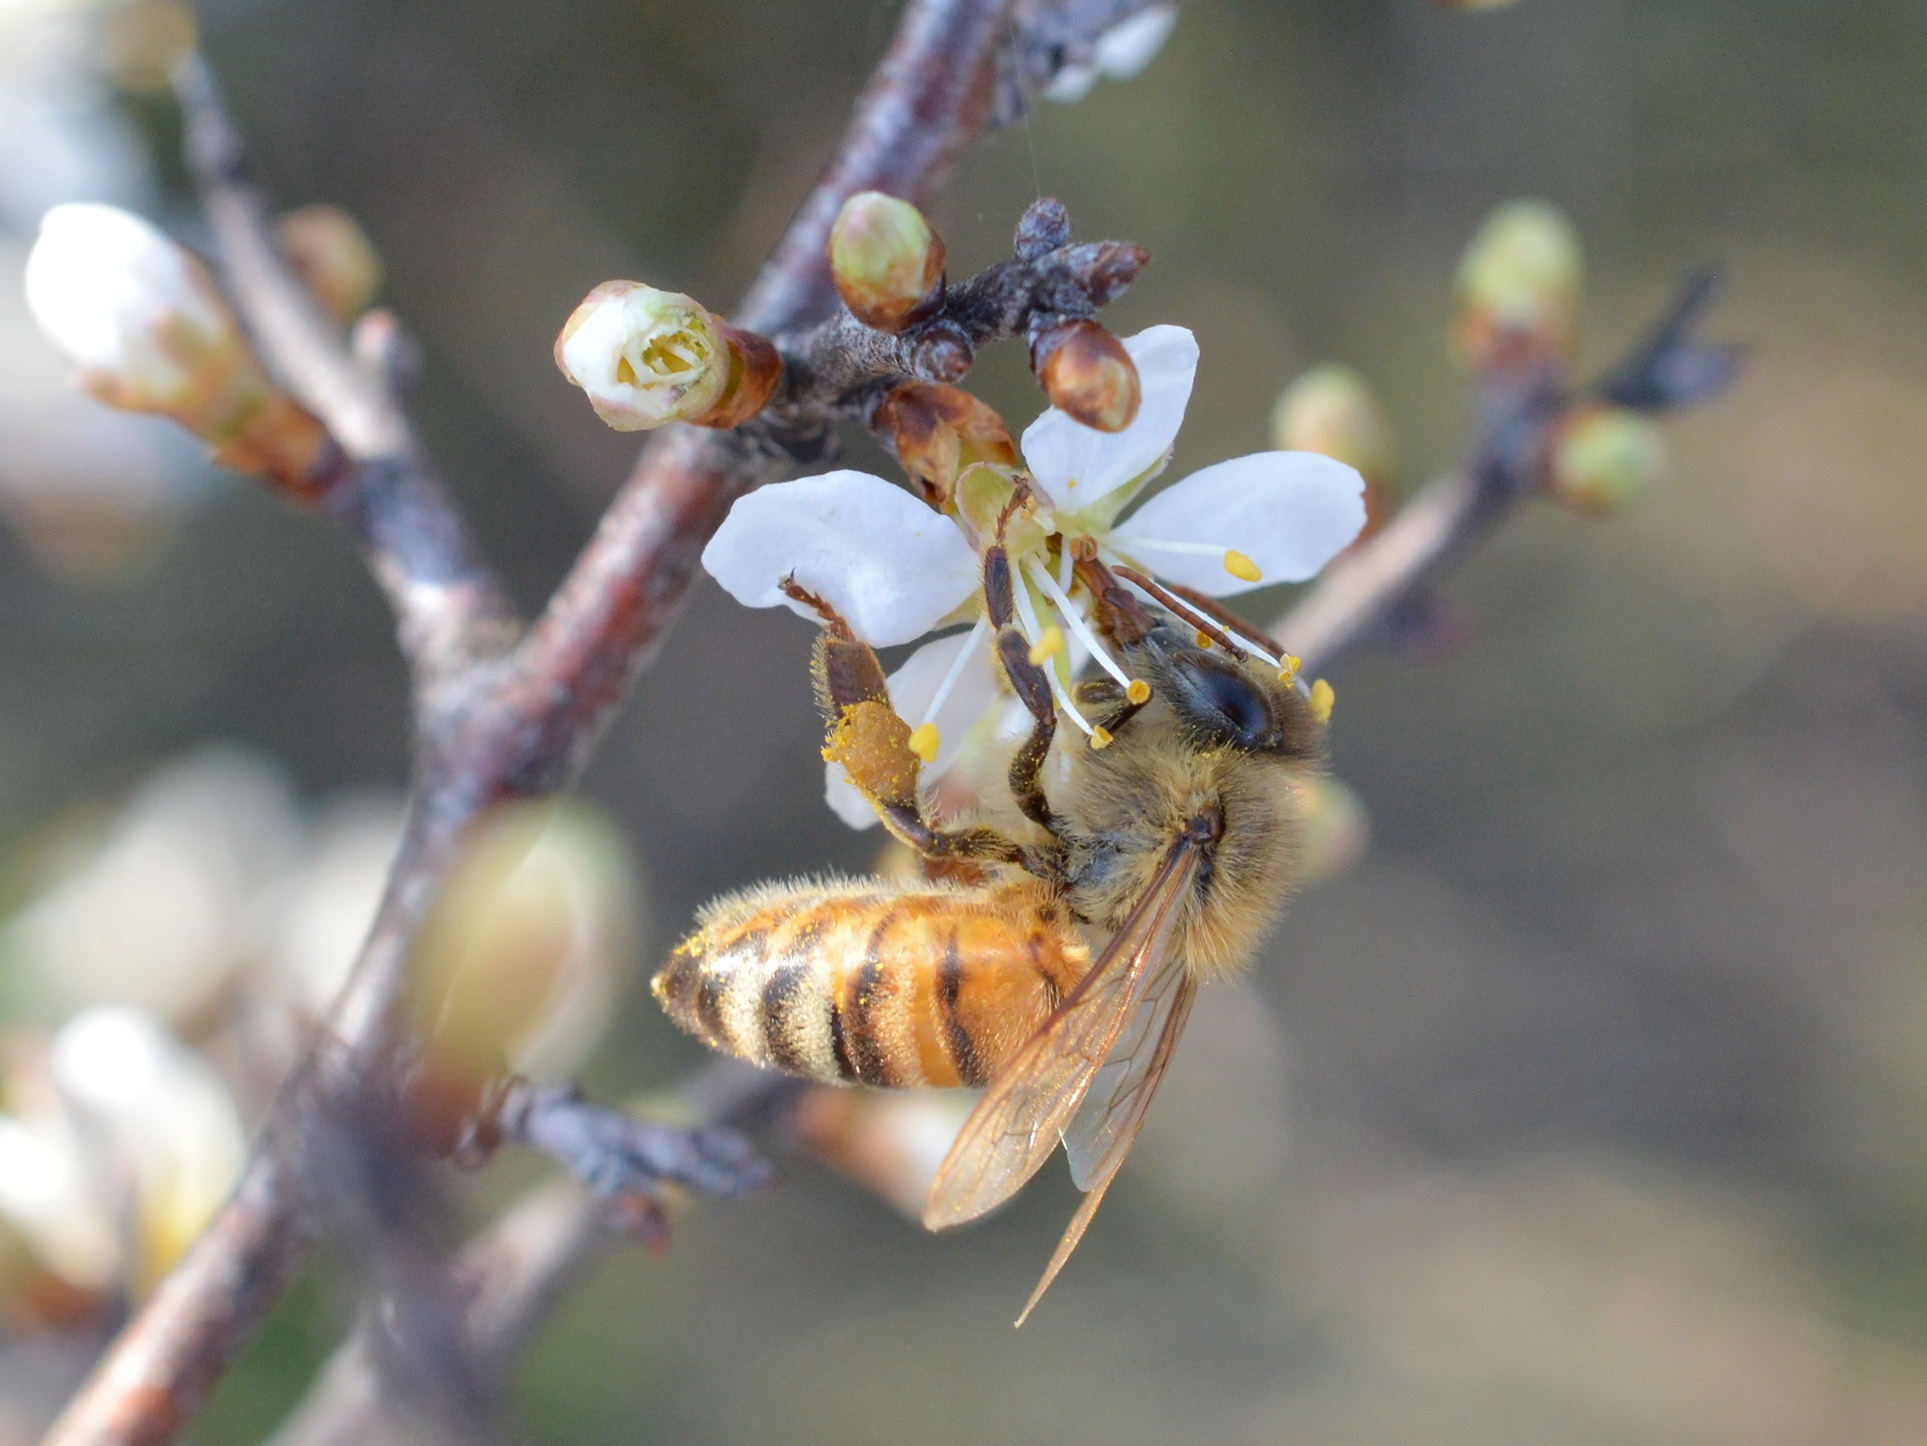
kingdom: Animalia
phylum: Arthropoda
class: Insecta
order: Hymenoptera
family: Apidae
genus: Apis
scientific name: Apis mellifera
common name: Honey bee
